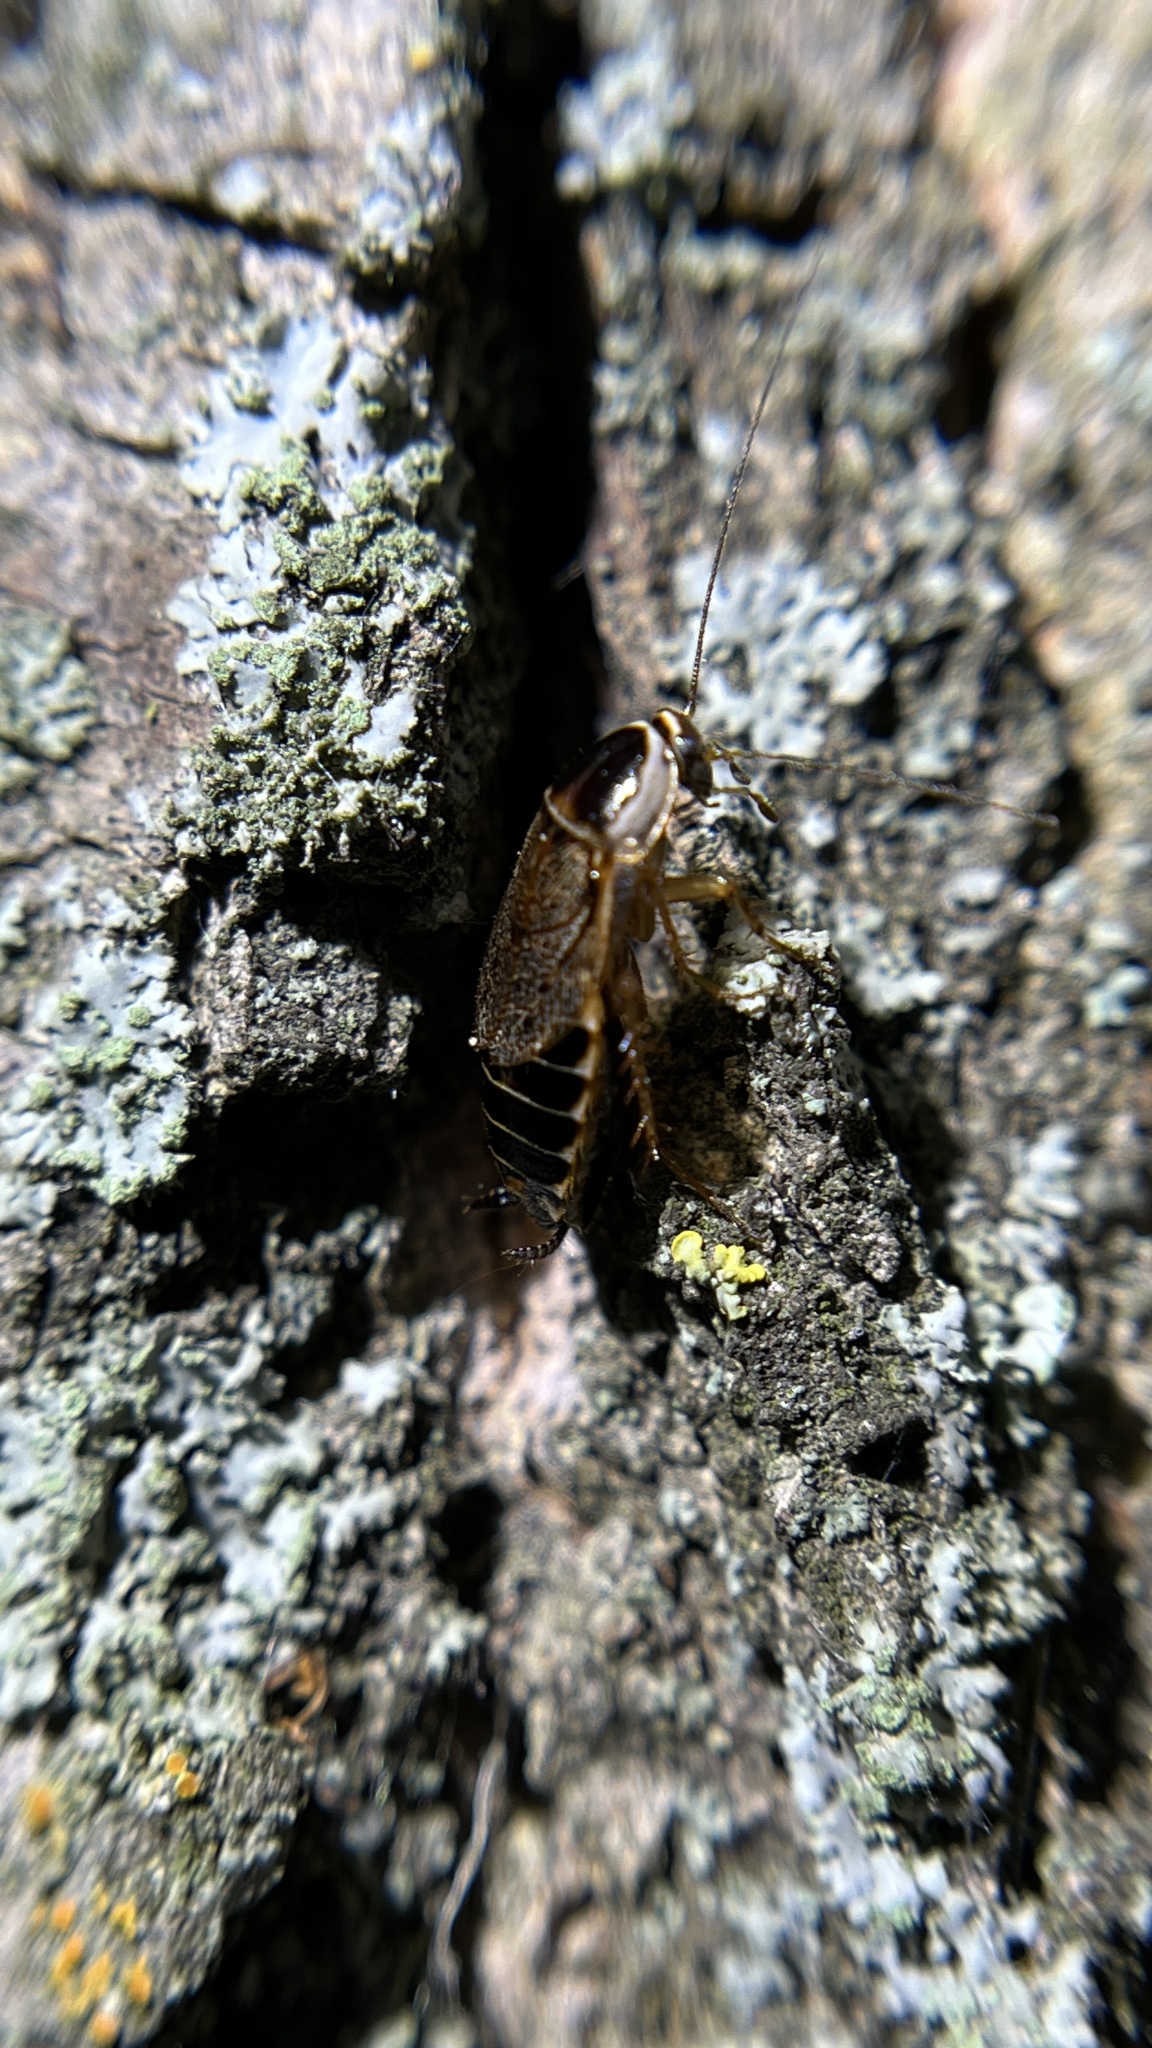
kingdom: Animalia
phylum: Arthropoda
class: Insecta
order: Blattodea
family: Ectobiidae
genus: Ectobius
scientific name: Ectobius sylvestris
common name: Forest cockroach
